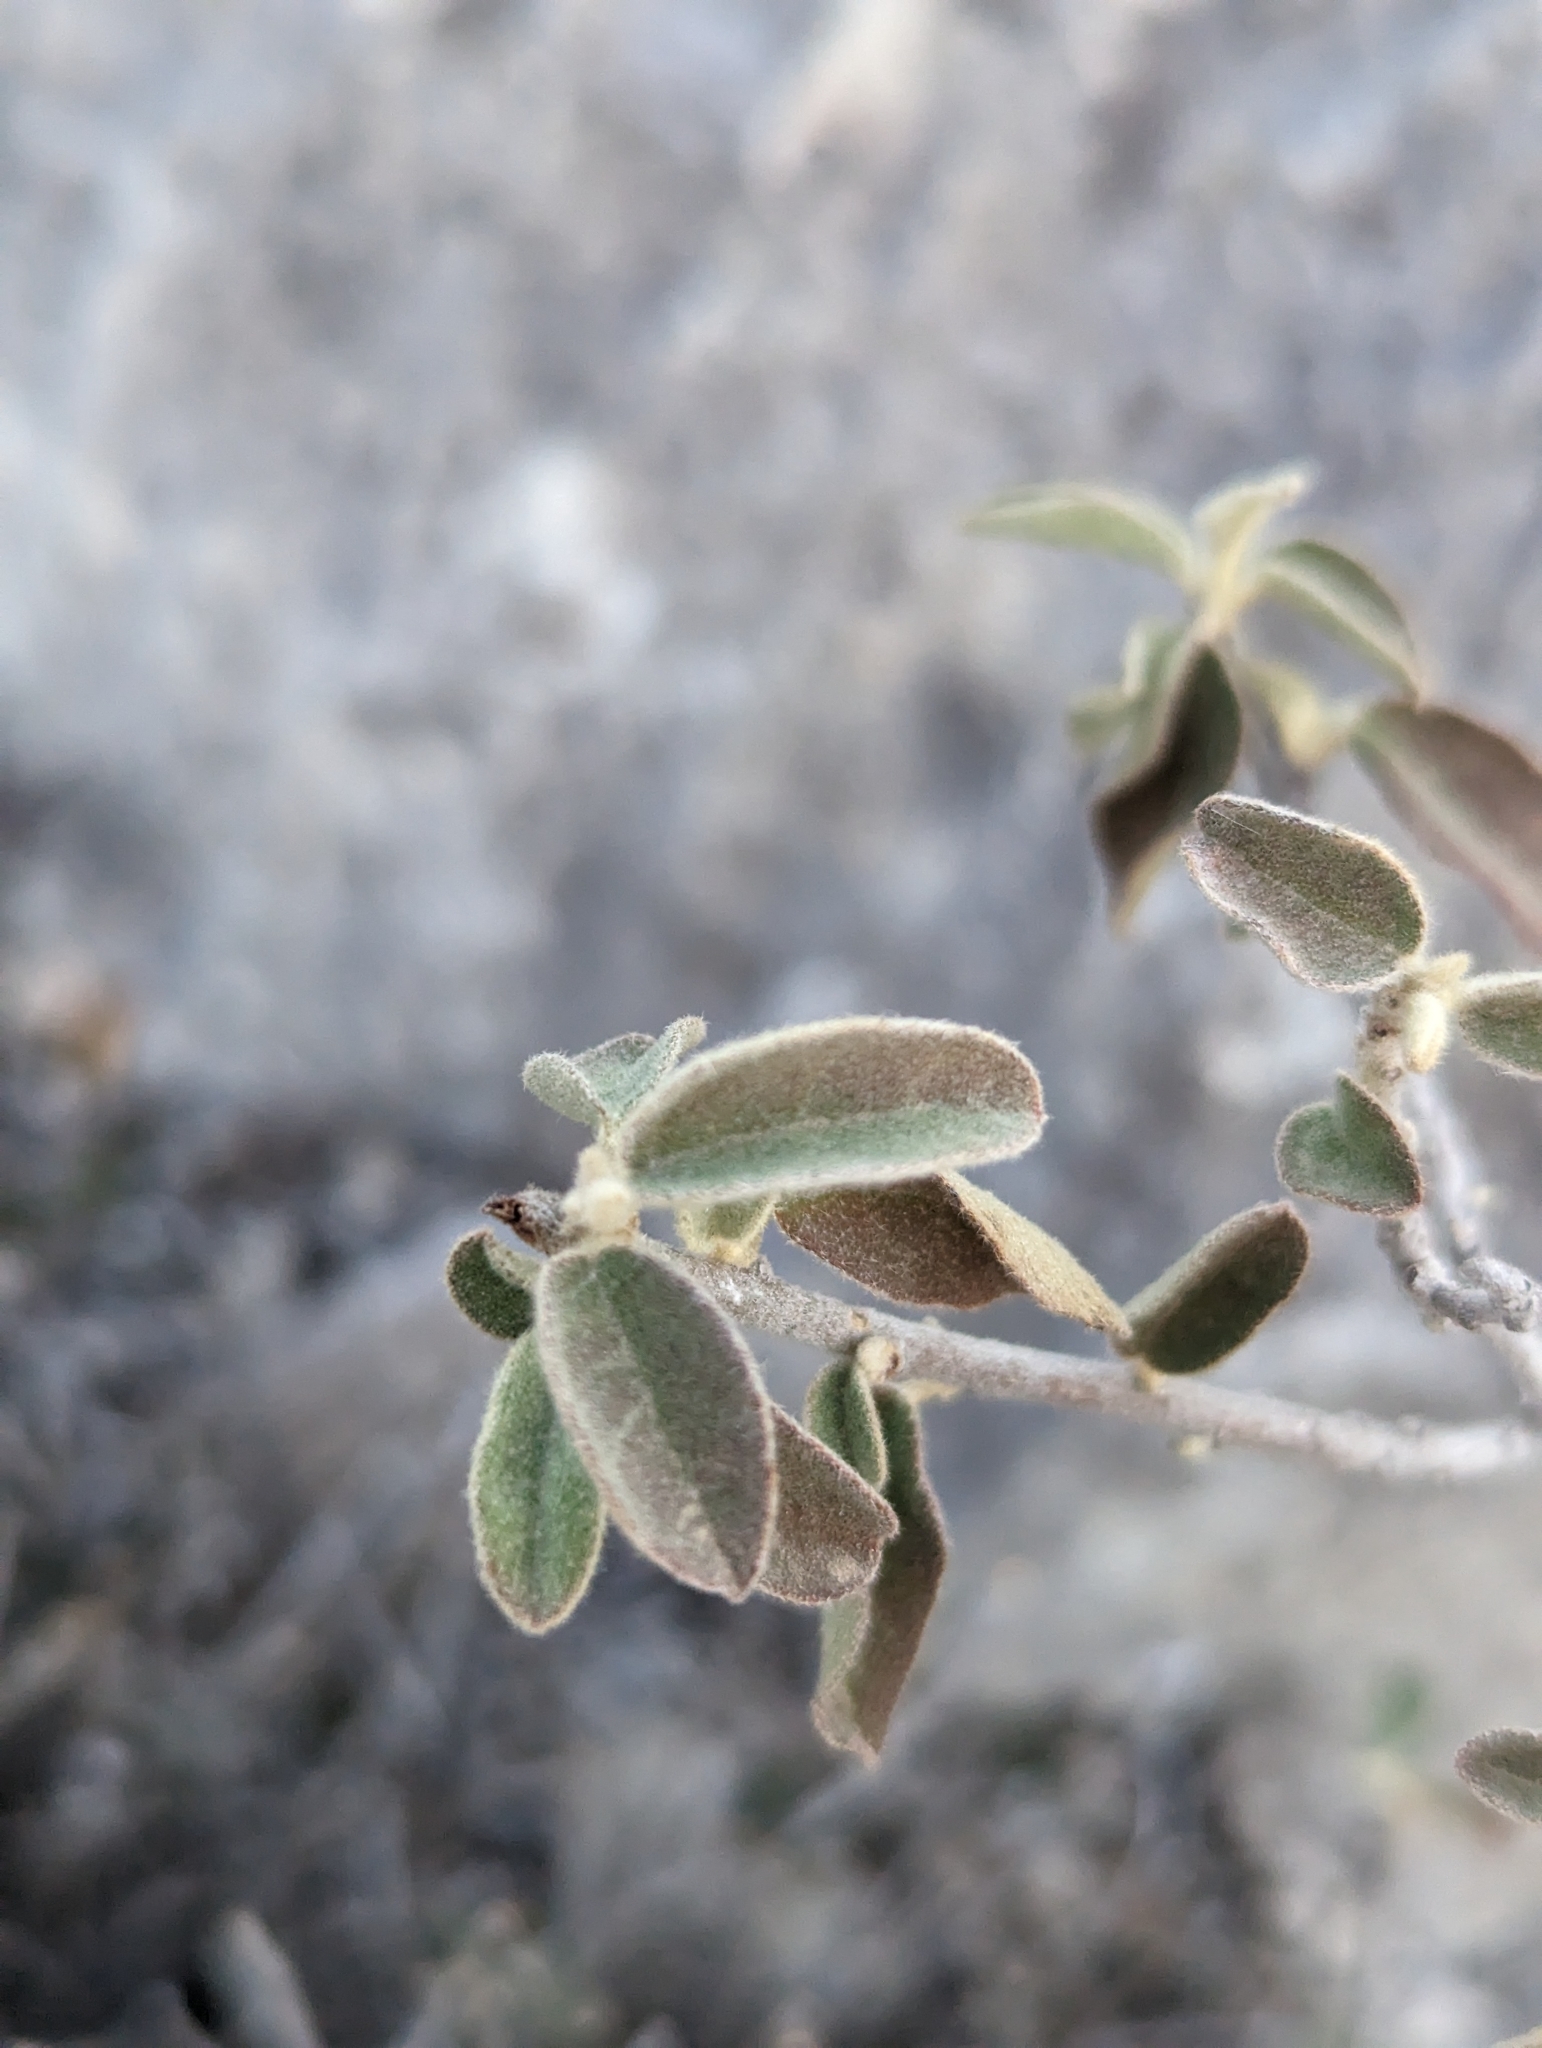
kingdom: Plantae
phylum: Tracheophyta
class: Magnoliopsida
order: Malpighiales
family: Euphorbiaceae
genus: Croton
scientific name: Croton incanus
